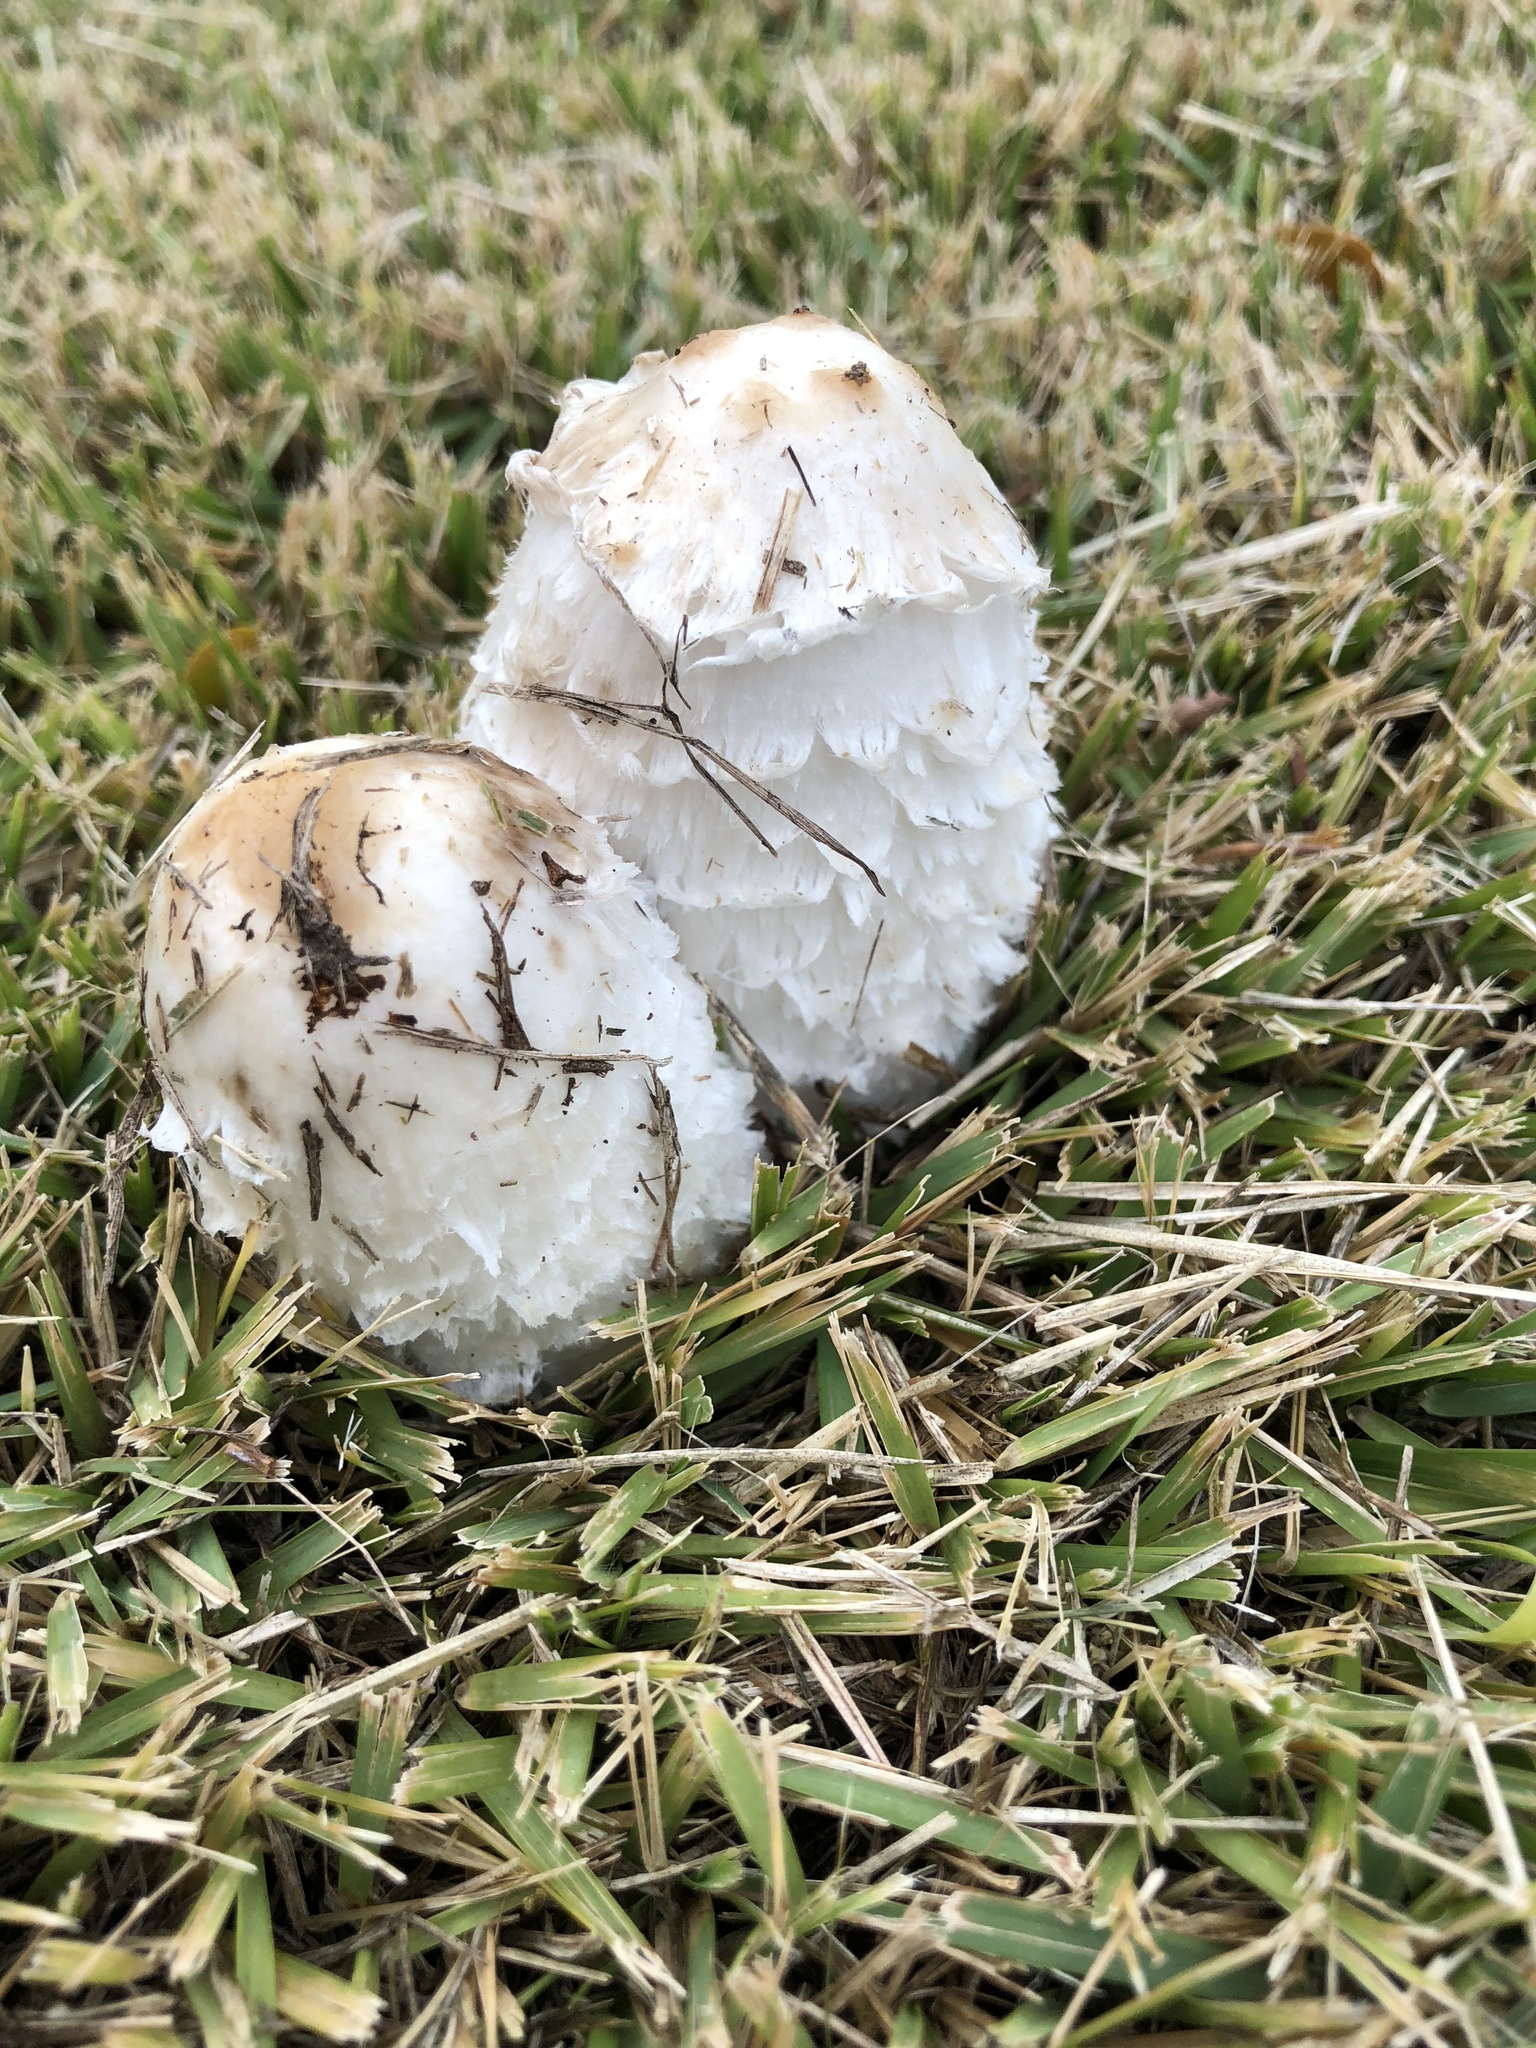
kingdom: Fungi
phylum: Basidiomycota
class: Agaricomycetes
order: Agaricales
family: Agaricaceae
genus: Coprinus
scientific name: Coprinus comatus
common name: Lawyer's wig
